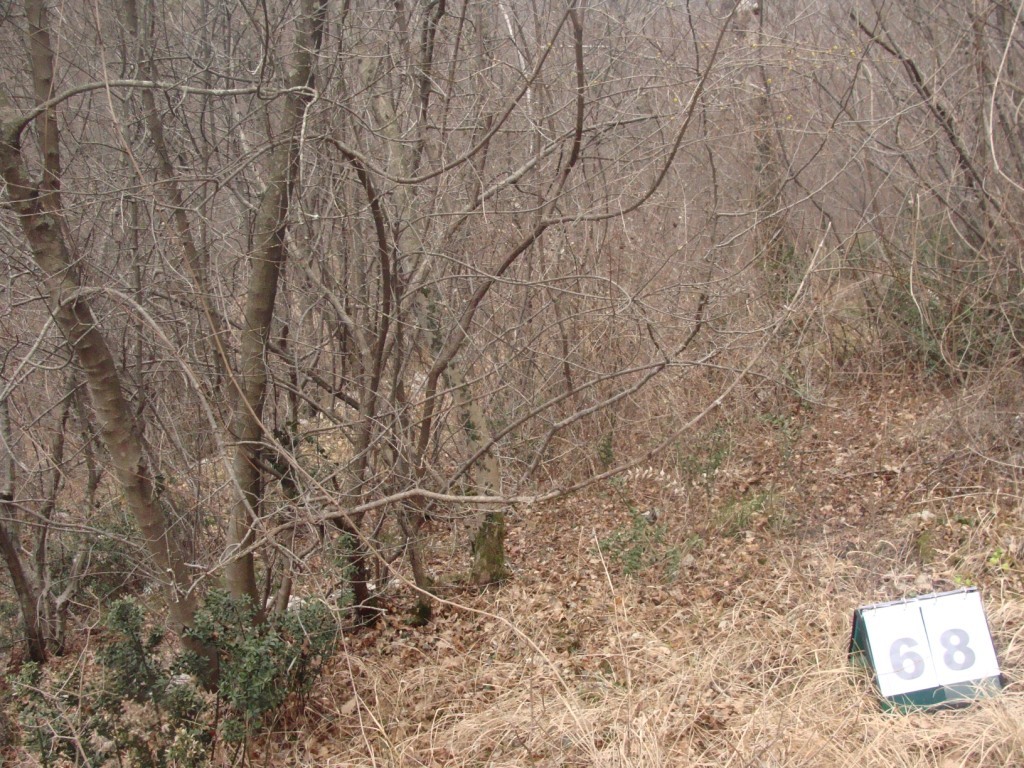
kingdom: Plantae
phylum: Tracheophyta
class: Magnoliopsida
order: Cornales
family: Cornaceae
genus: Cornus
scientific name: Cornus mas
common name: Cornelian-cherry
